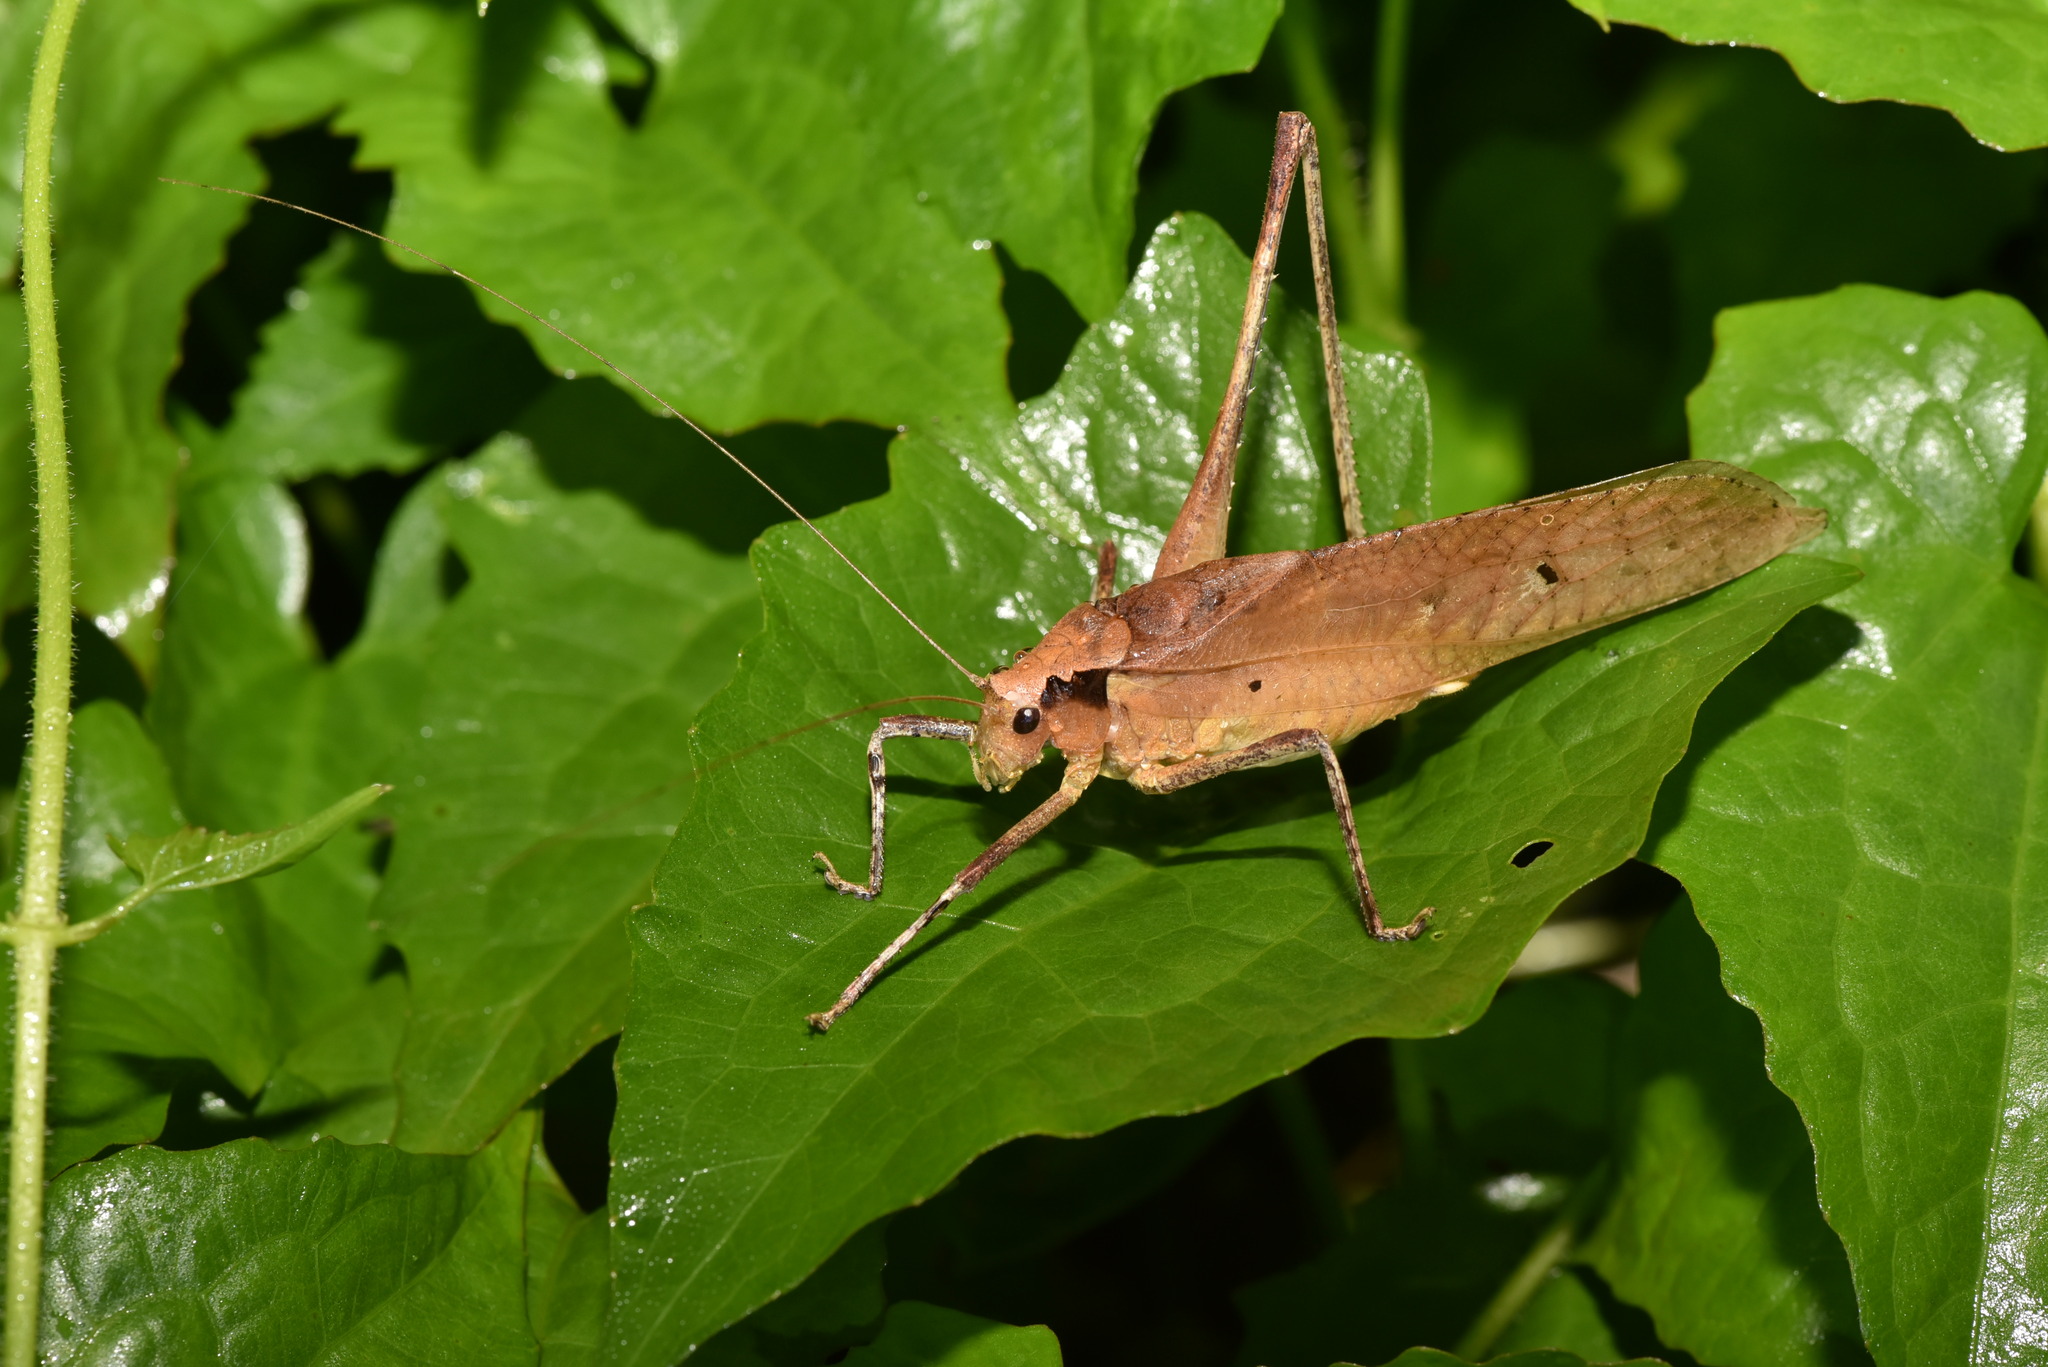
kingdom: Animalia
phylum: Arthropoda
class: Insecta
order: Orthoptera
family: Tettigoniidae
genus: Mecopoda
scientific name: Mecopoda elongata
